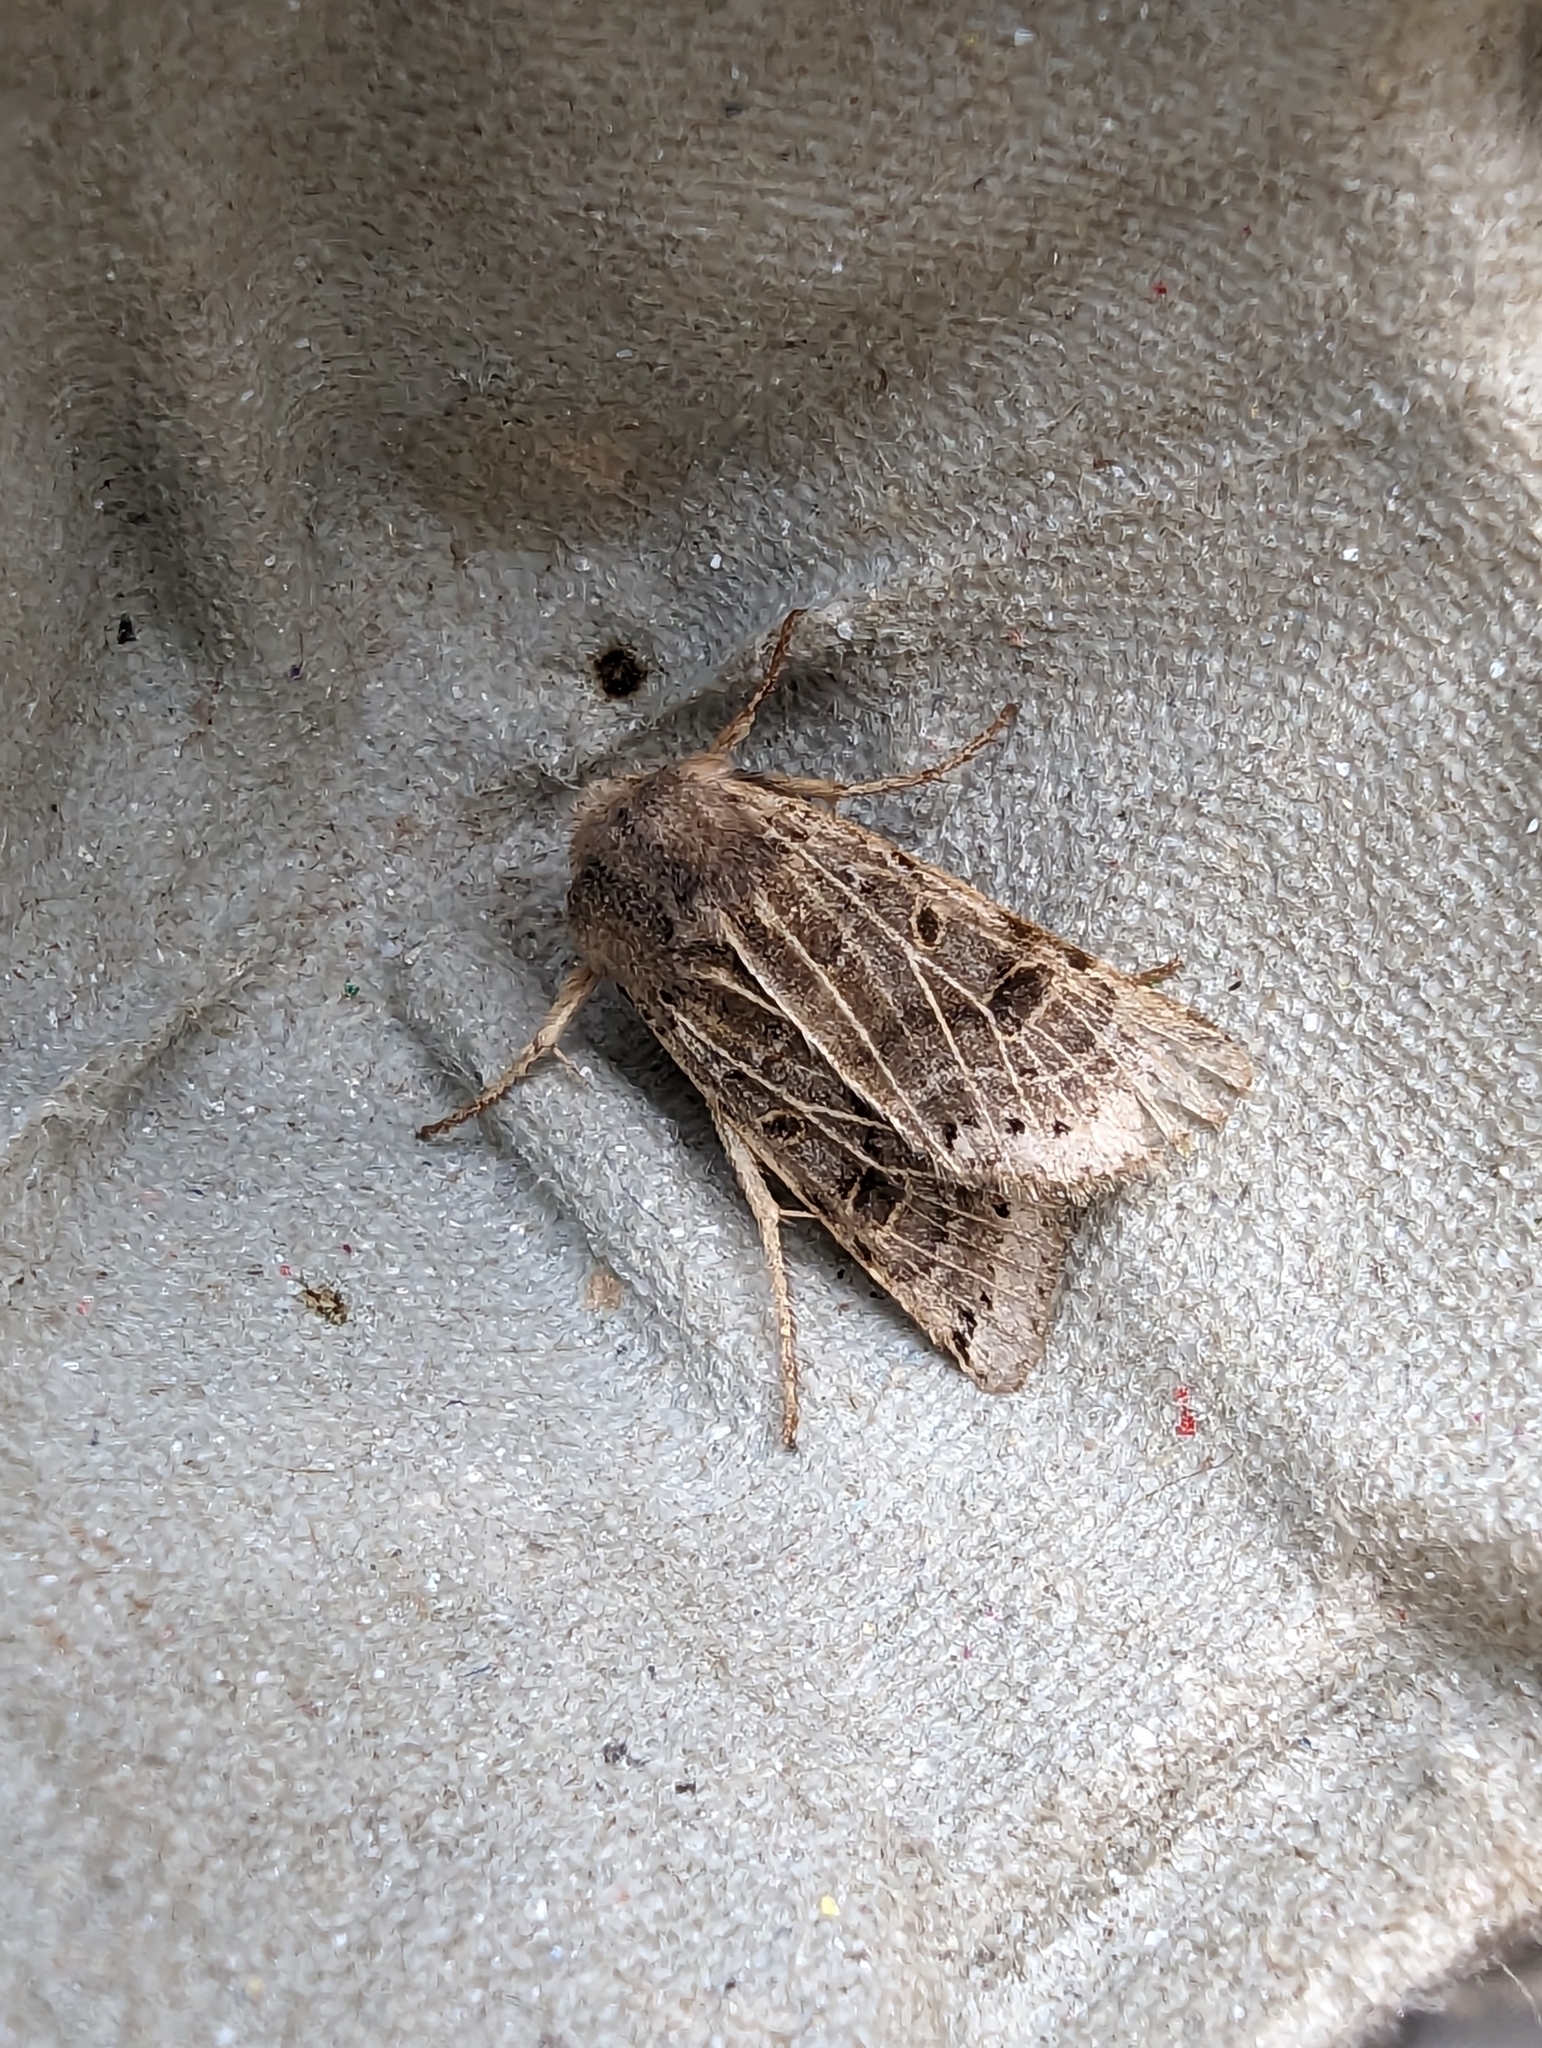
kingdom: Animalia
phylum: Arthropoda
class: Insecta
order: Lepidoptera
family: Noctuidae
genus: Agrochola
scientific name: Agrochola lunosa
